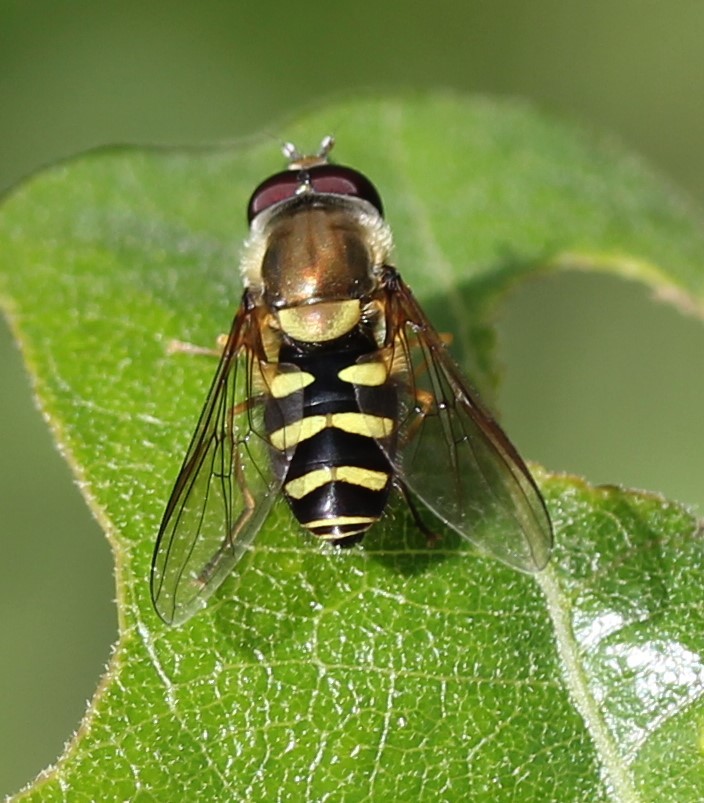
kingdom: Animalia
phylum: Arthropoda
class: Insecta
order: Diptera
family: Syrphidae
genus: Syrphus
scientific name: Syrphus opinator
